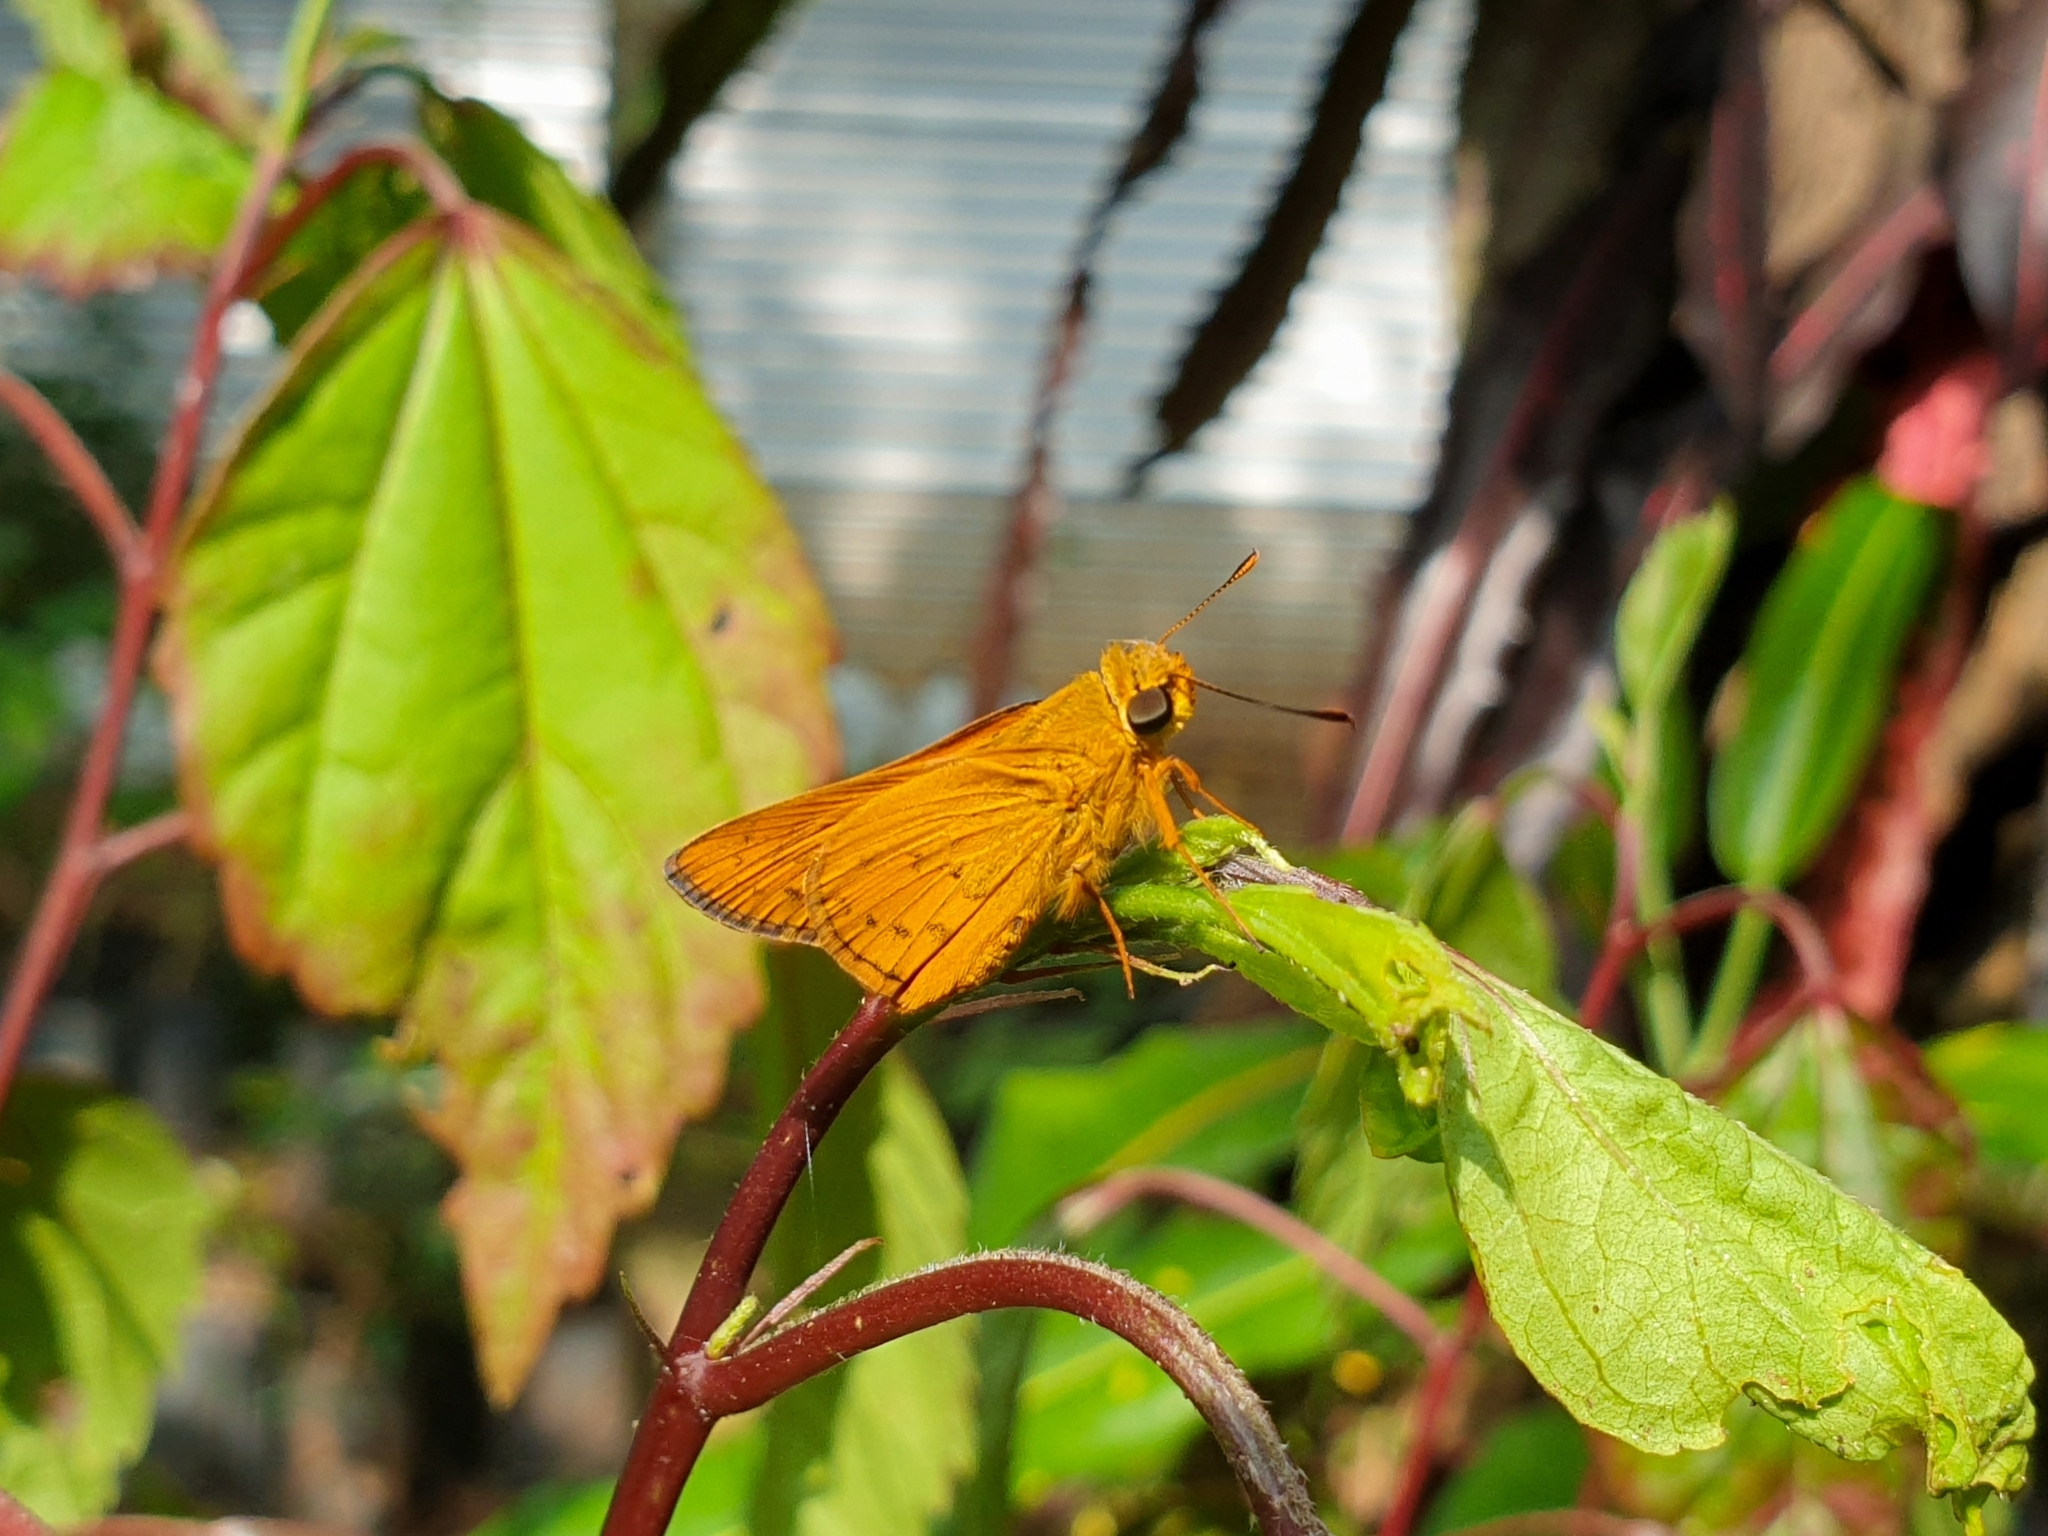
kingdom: Animalia
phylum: Arthropoda
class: Insecta
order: Lepidoptera
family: Hesperiidae
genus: Cephrenes
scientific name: Cephrenes trichopepla
